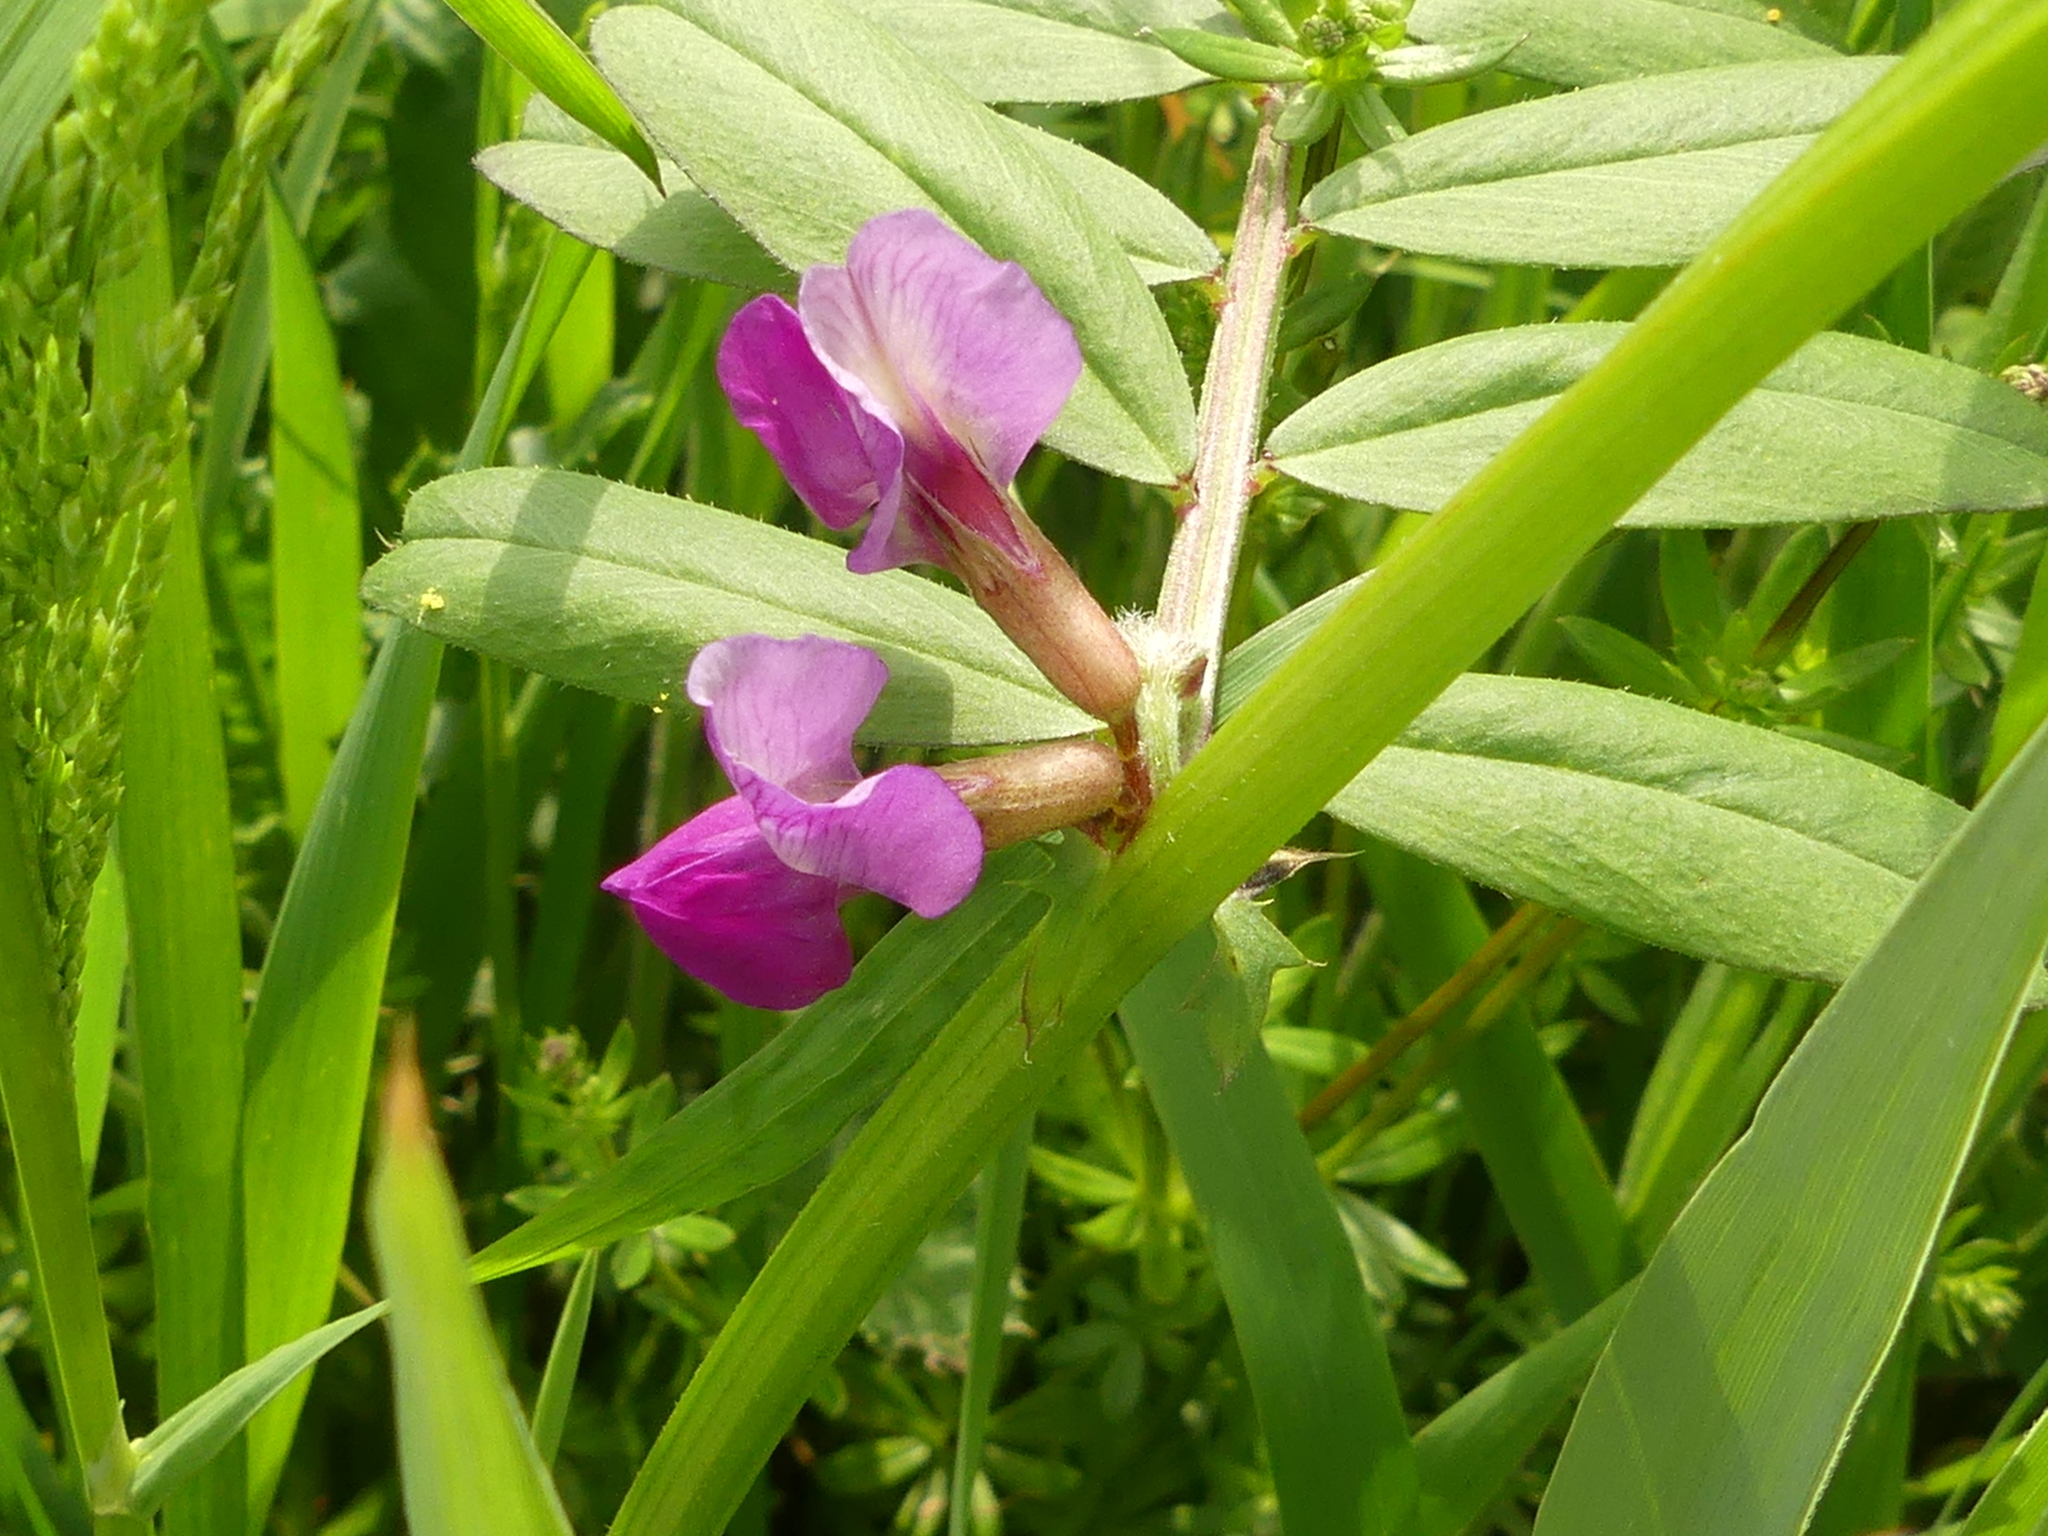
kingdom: Plantae
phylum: Tracheophyta
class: Magnoliopsida
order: Fabales
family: Fabaceae
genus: Vicia
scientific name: Vicia sativa
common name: Garden vetch
